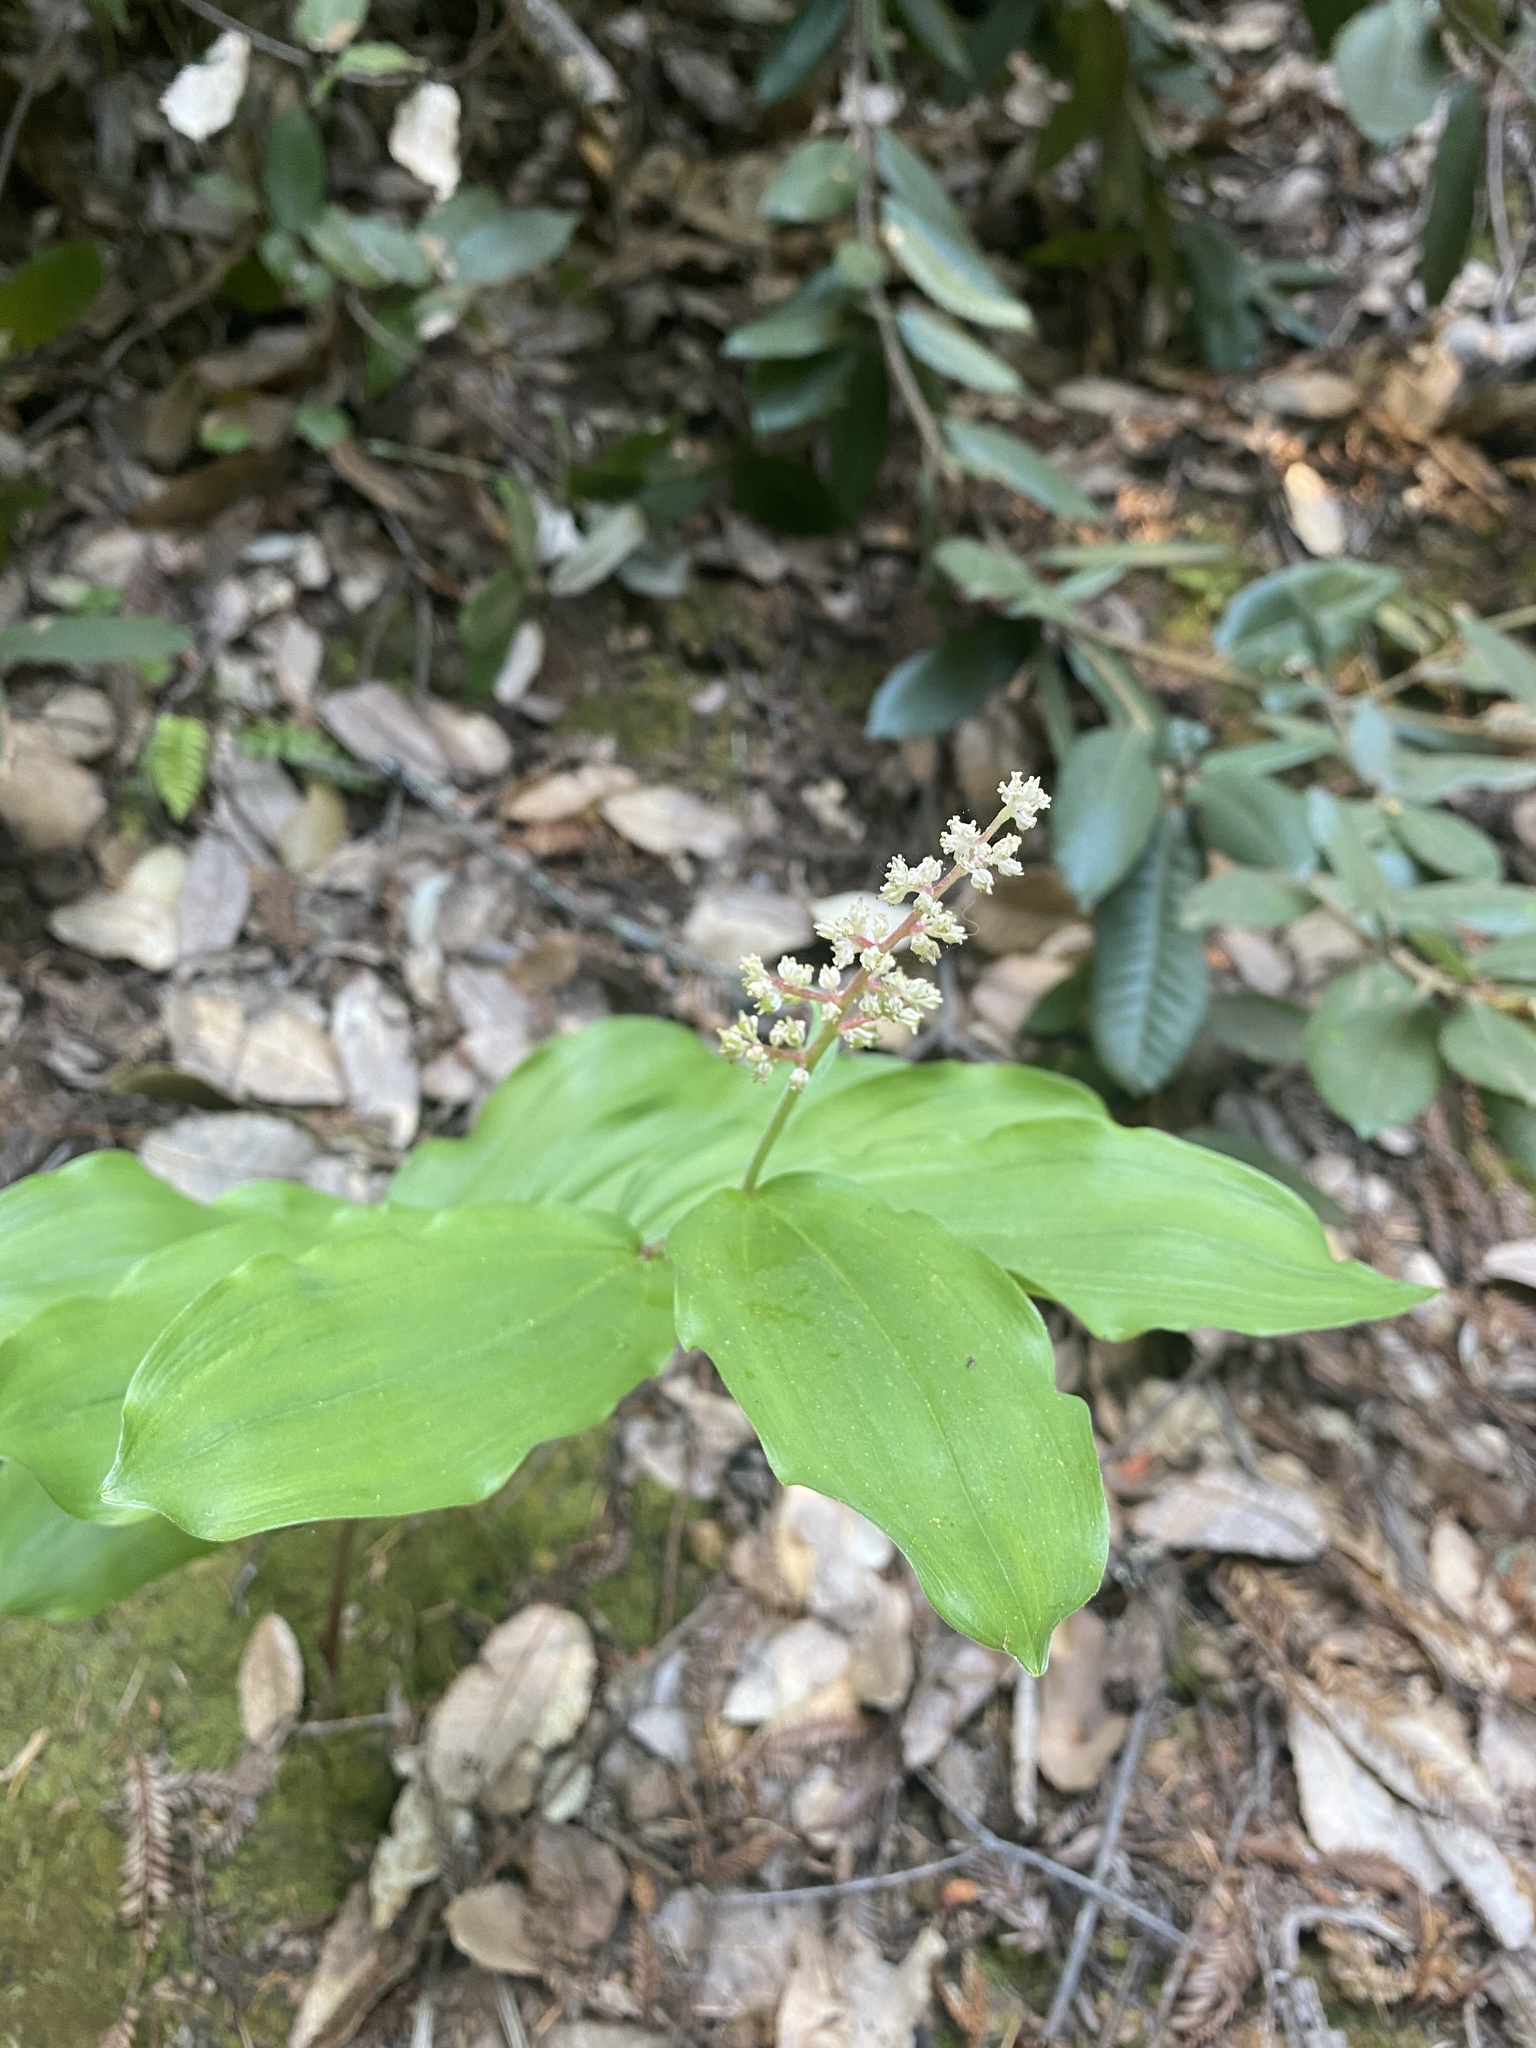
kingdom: Plantae
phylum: Tracheophyta
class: Liliopsida
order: Asparagales
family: Asparagaceae
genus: Maianthemum
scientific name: Maianthemum racemosum
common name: False spikenard
